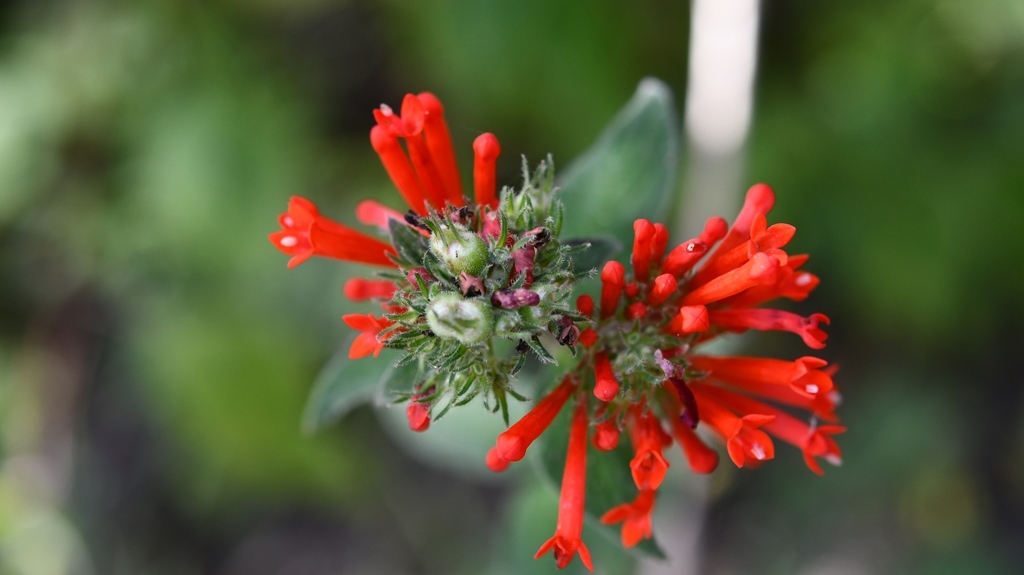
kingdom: Plantae
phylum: Tracheophyta
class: Magnoliopsida
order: Gentianales
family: Rubiaceae
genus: Bouvardia
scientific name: Bouvardia ternifolia
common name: Scarlet bouvardia
